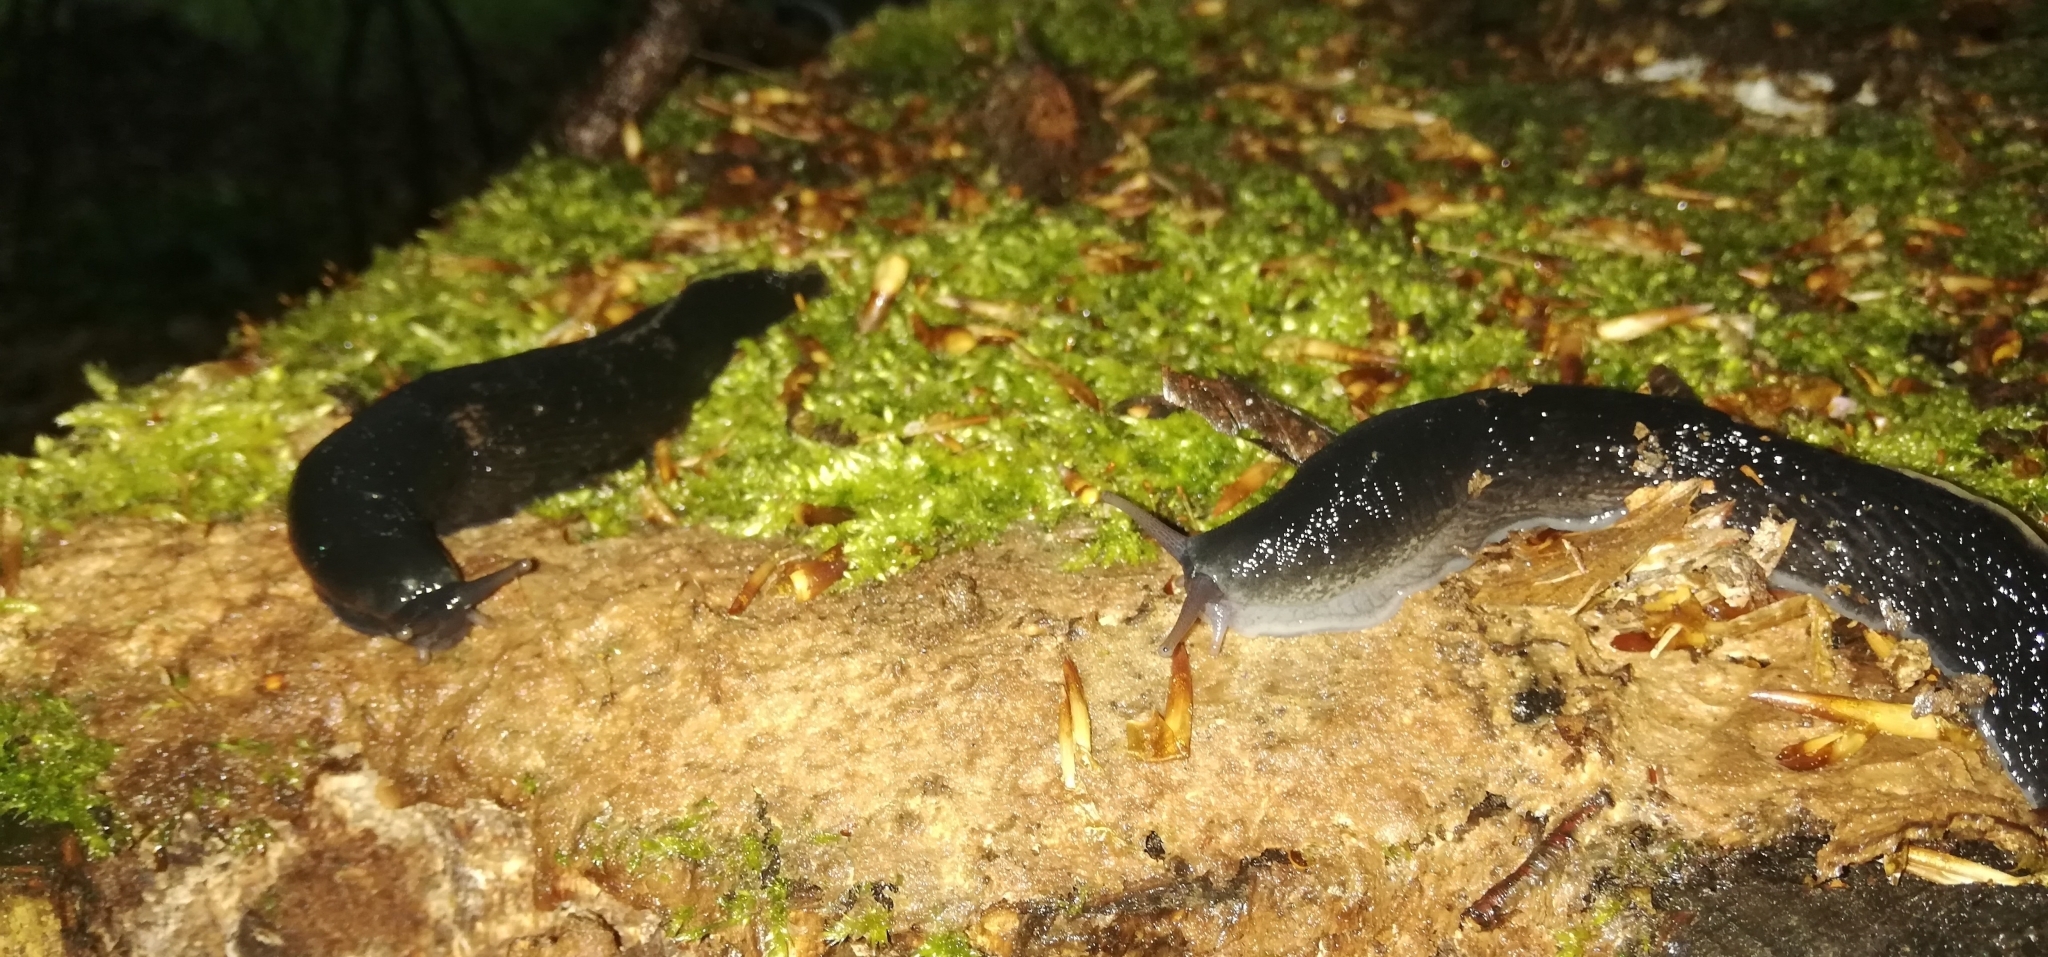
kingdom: Animalia
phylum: Mollusca
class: Gastropoda
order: Stylommatophora
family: Limacidae
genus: Limax
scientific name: Limax cinereoniger
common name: Ash-black slug
